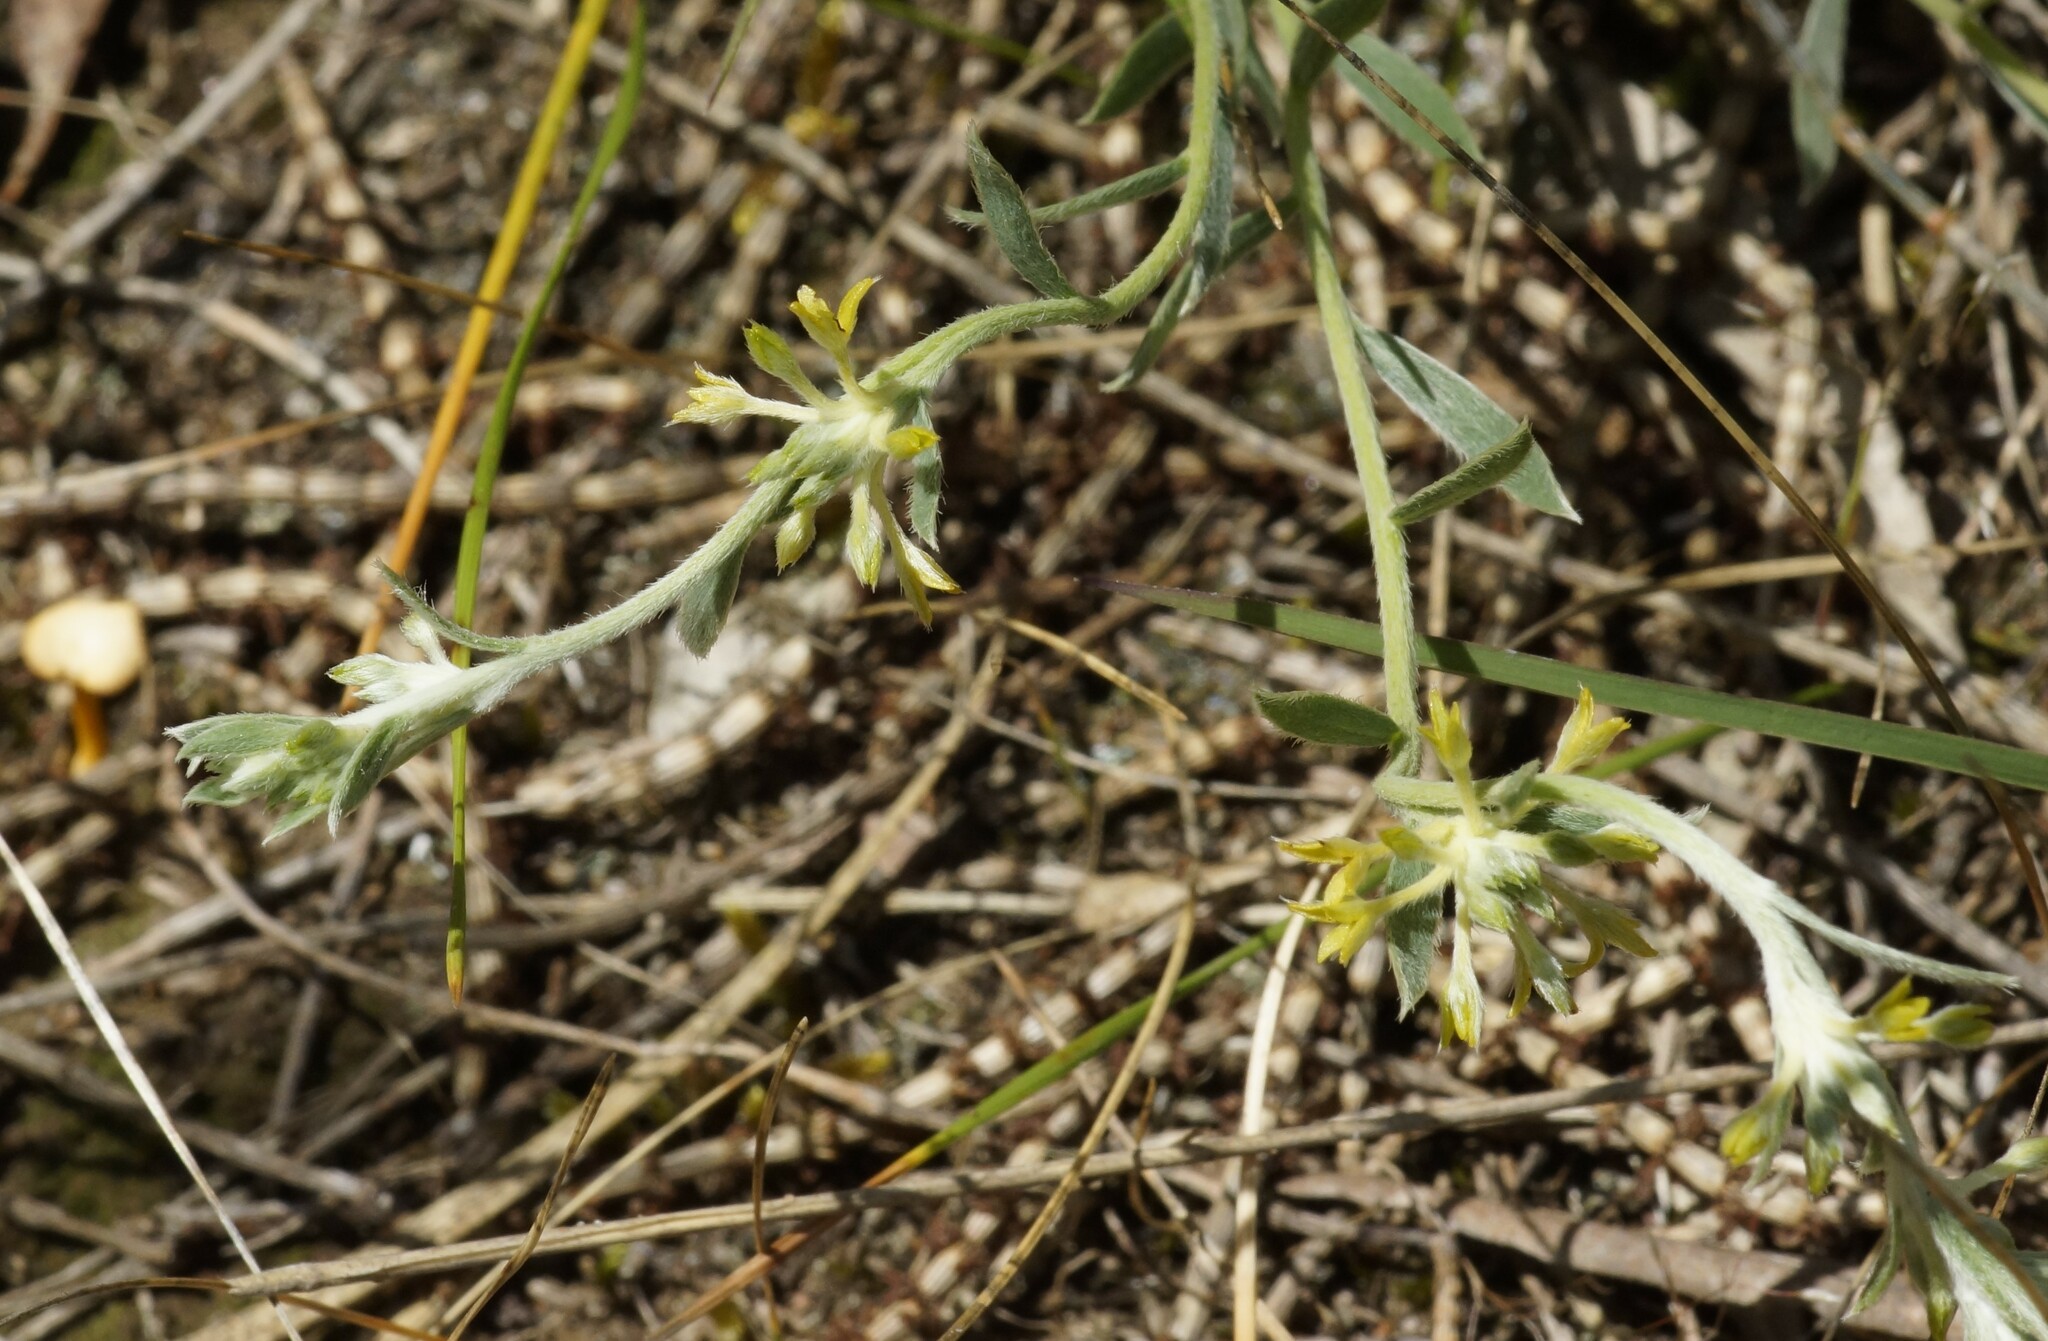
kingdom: Plantae
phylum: Tracheophyta
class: Magnoliopsida
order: Malvales
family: Thymelaeaceae
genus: Pimelea
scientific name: Pimelea curviflora
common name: Curved riceflower
